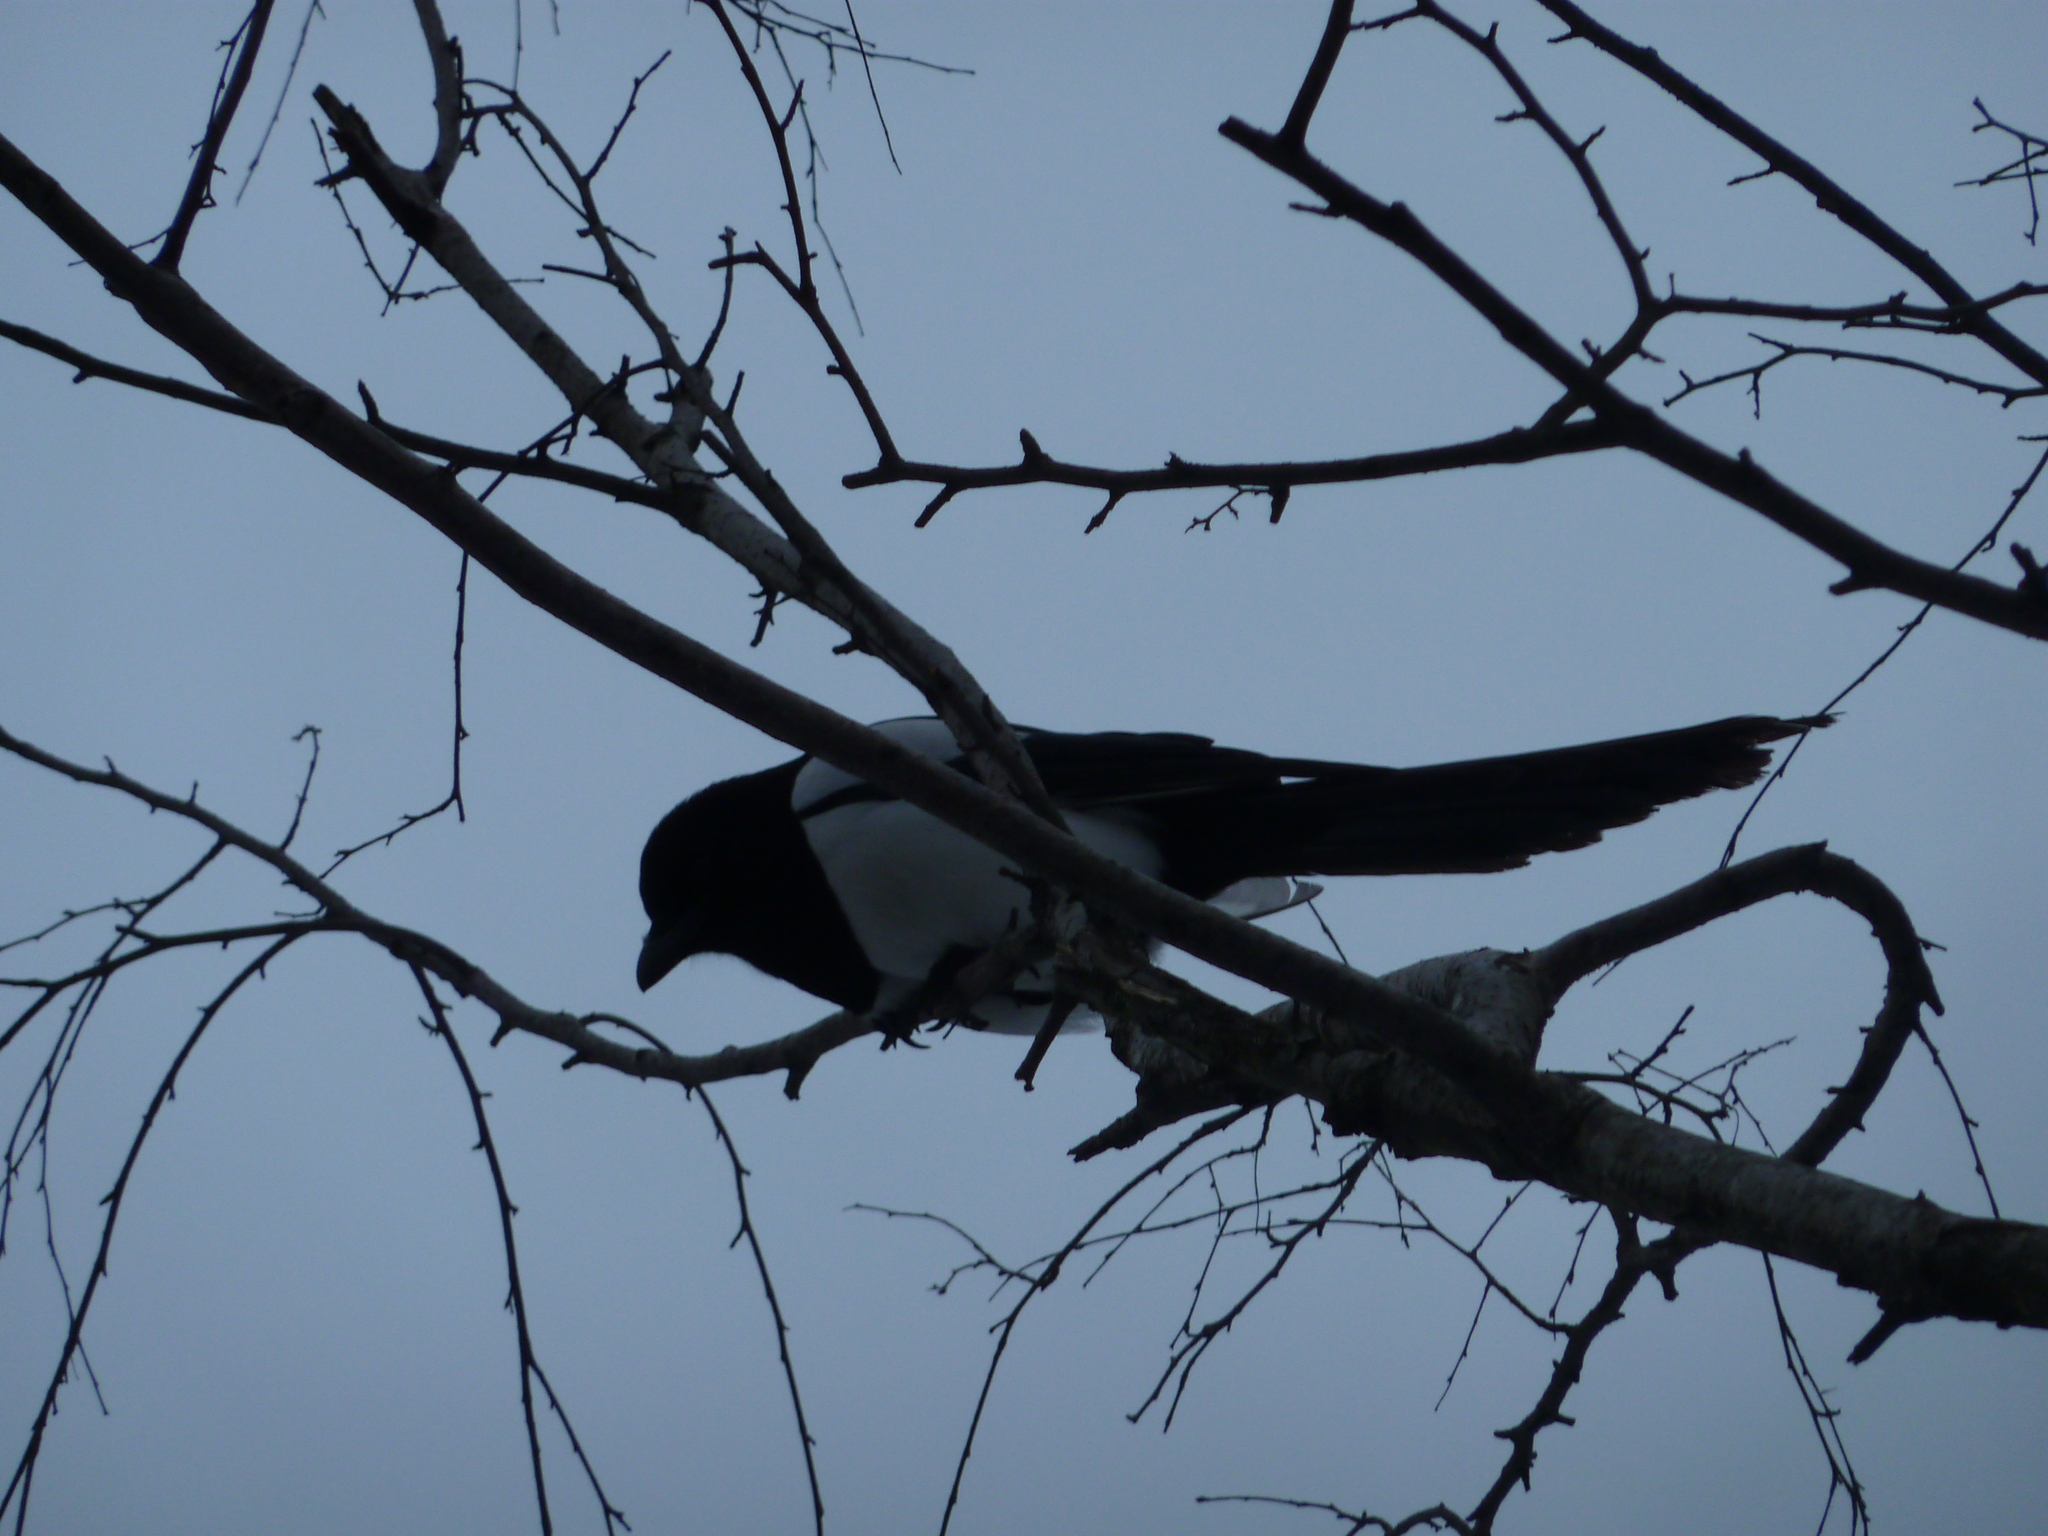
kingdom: Animalia
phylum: Chordata
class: Aves
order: Passeriformes
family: Corvidae
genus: Pica
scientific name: Pica pica
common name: Eurasian magpie
